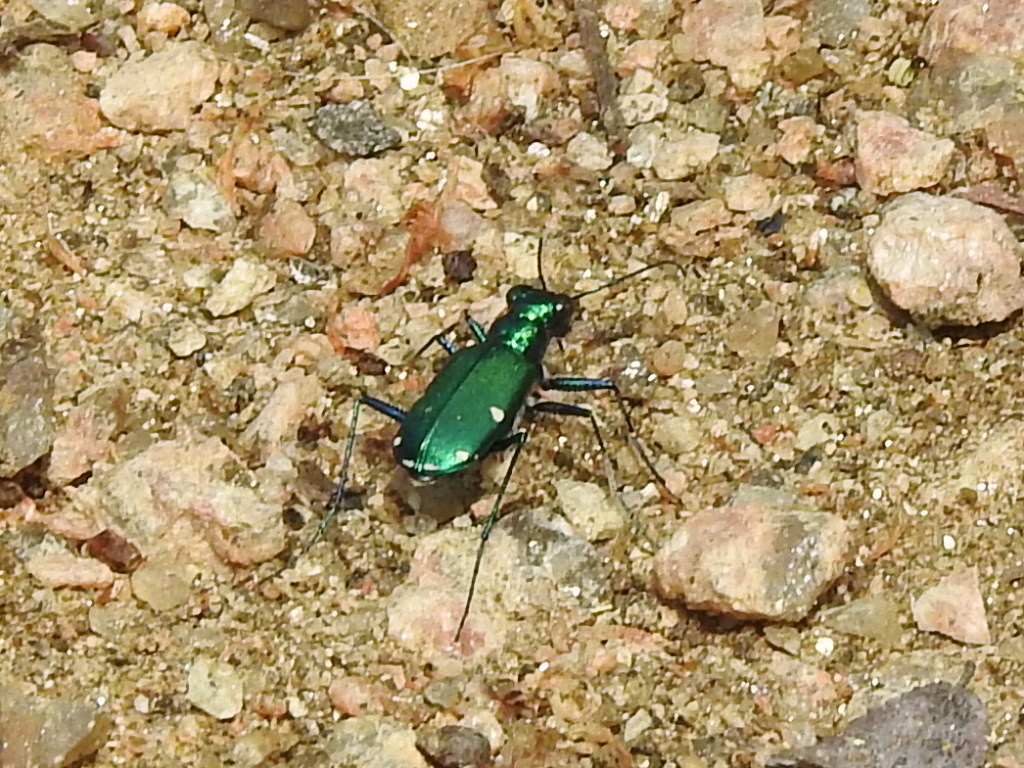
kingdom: Animalia
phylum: Arthropoda
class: Insecta
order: Coleoptera
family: Carabidae
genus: Cicindela
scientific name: Cicindela sexguttata
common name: Six-spotted tiger beetle
